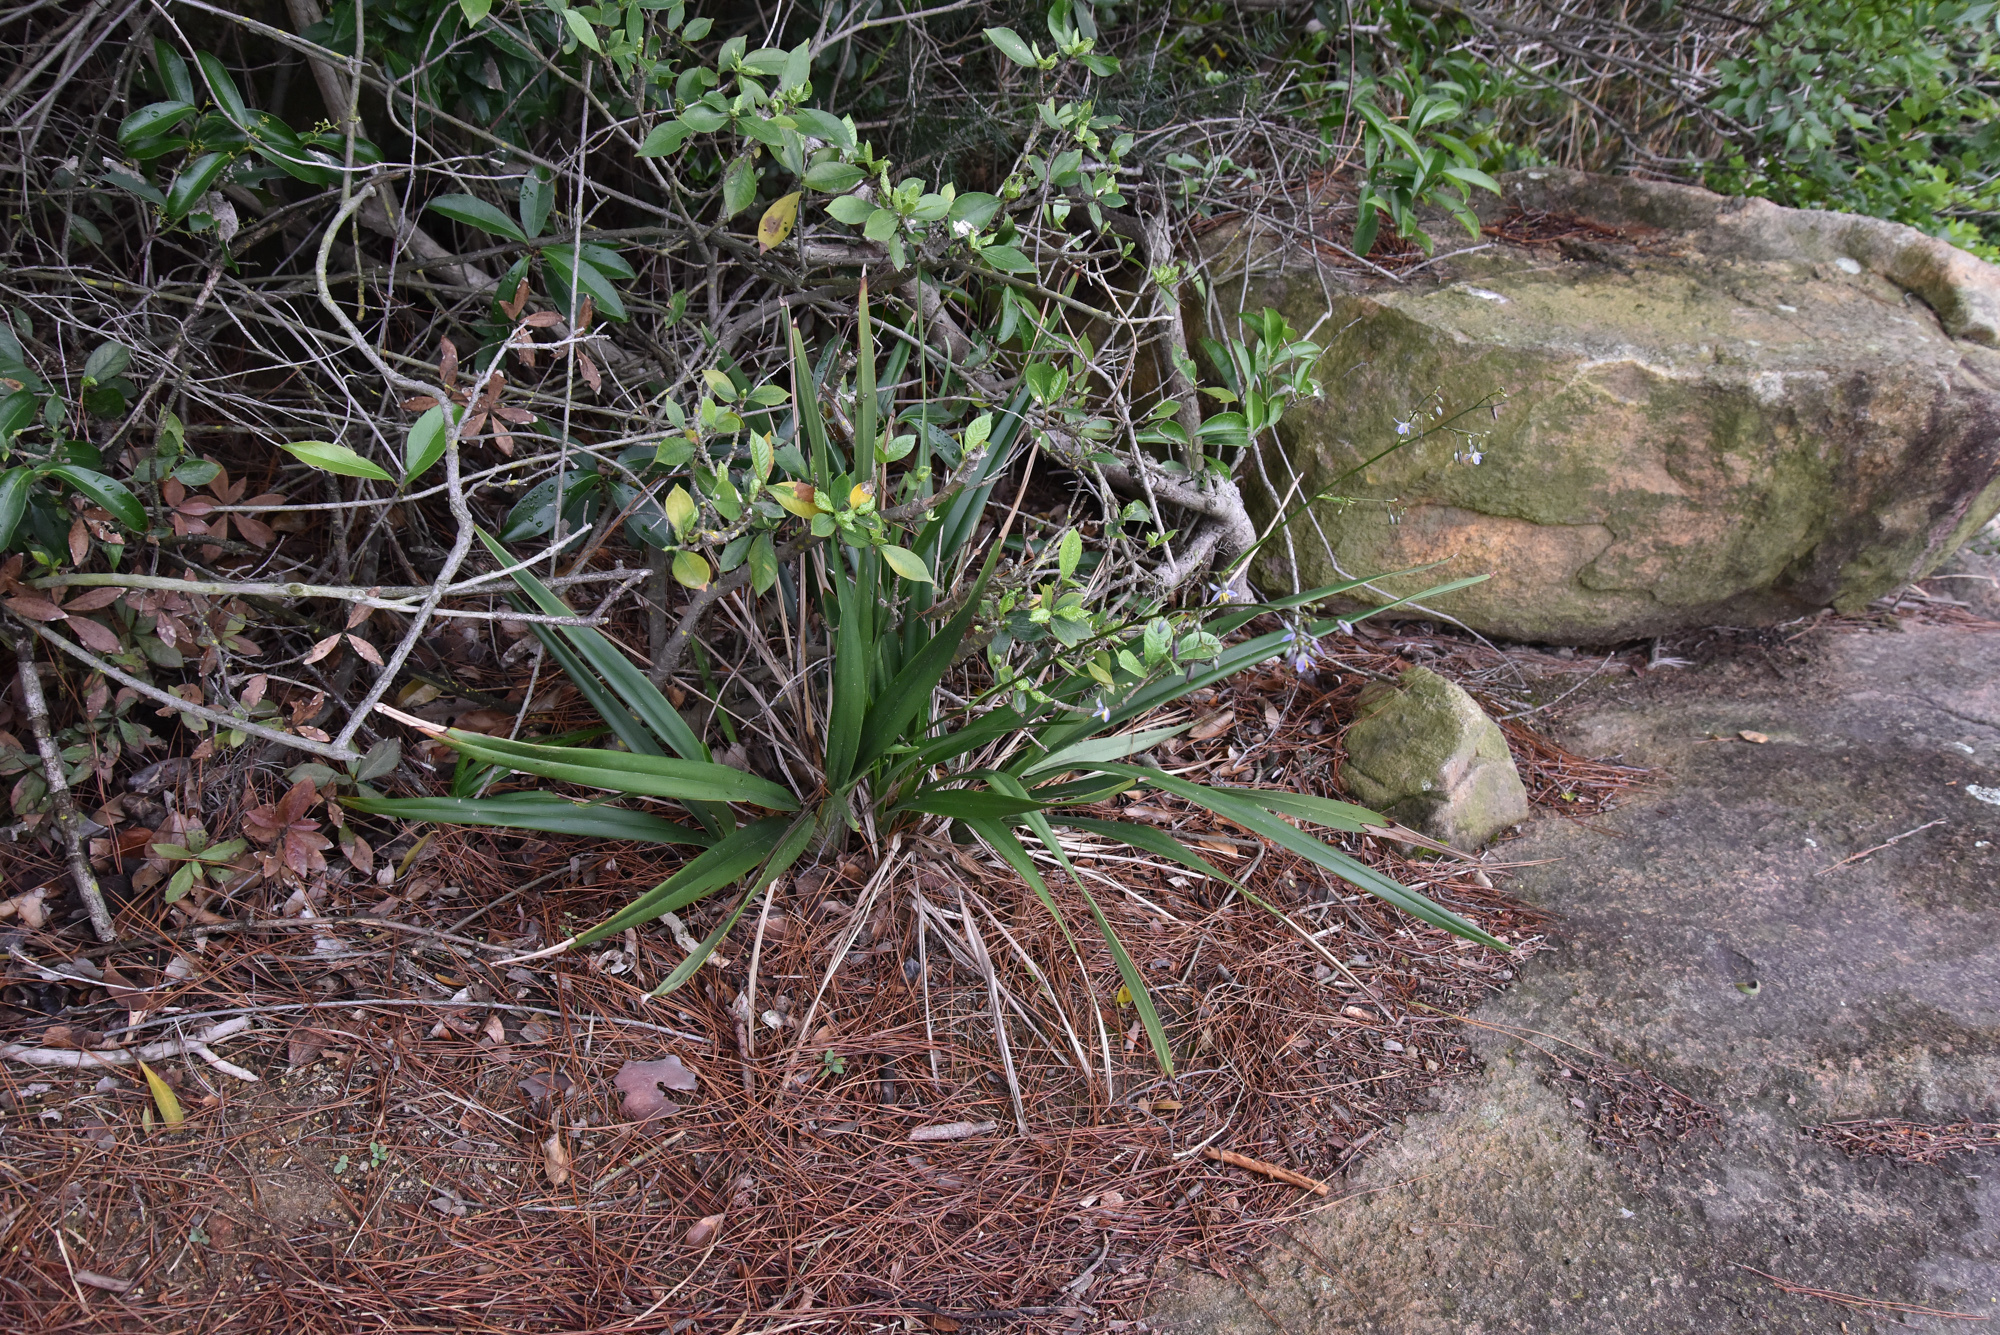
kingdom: Plantae
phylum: Tracheophyta
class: Liliopsida
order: Asparagales
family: Asphodelaceae
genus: Dianella
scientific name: Dianella ensifolia
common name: New zealand lilyplant
